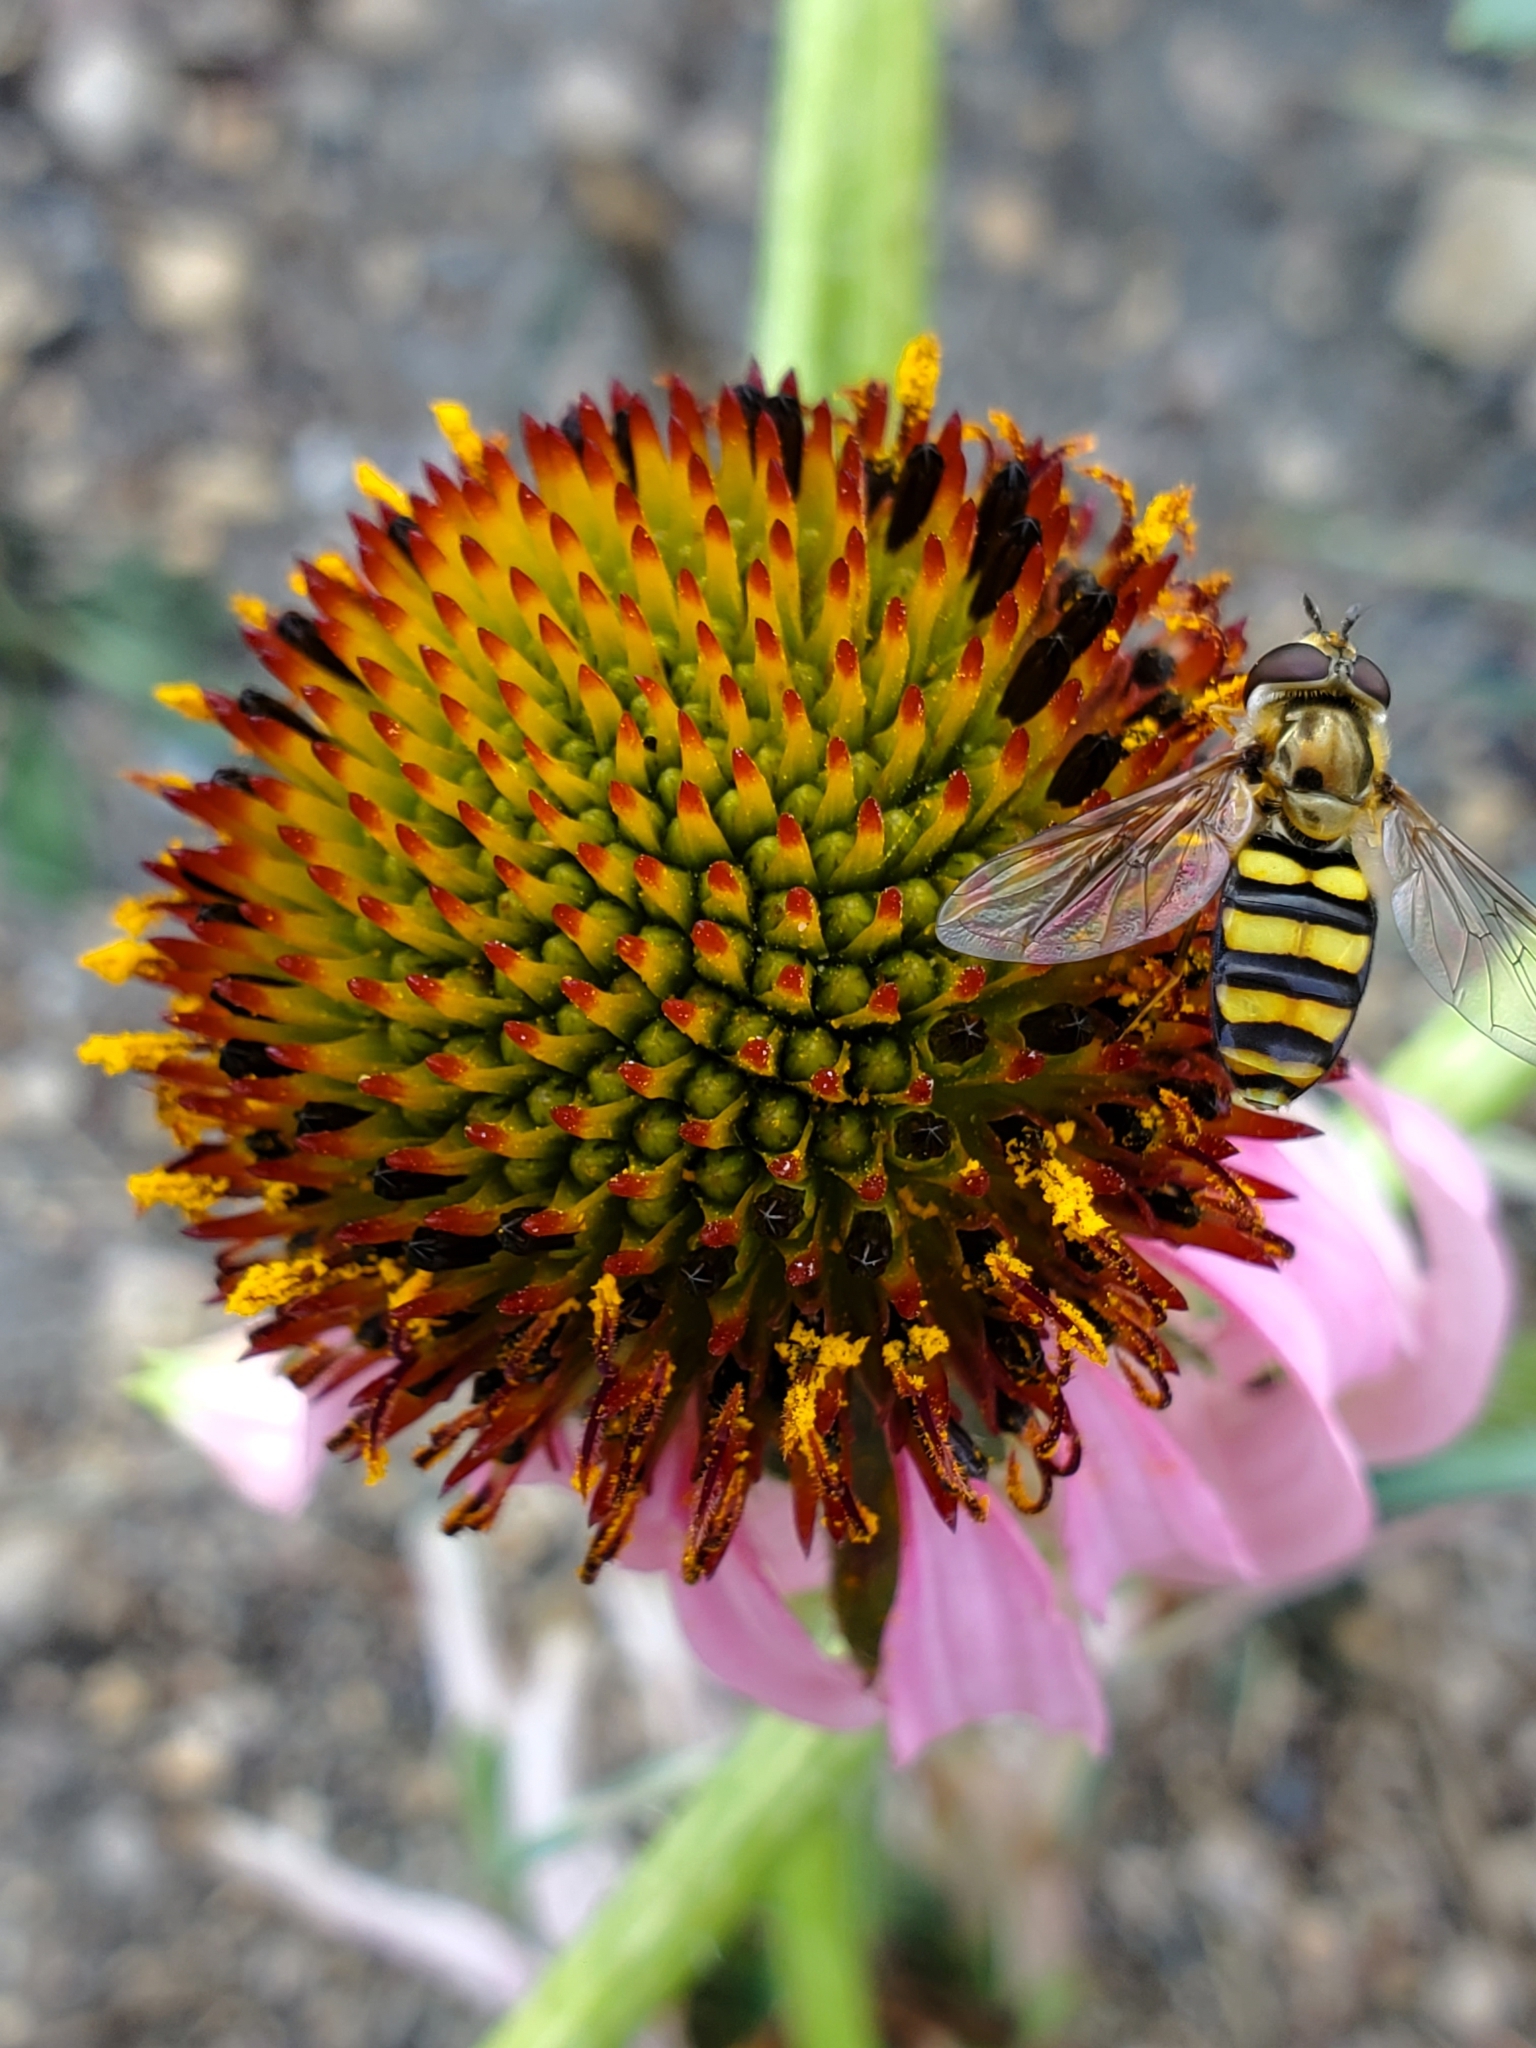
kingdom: Animalia
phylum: Arthropoda
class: Insecta
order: Diptera
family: Syrphidae
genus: Eupeodes
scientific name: Eupeodes
